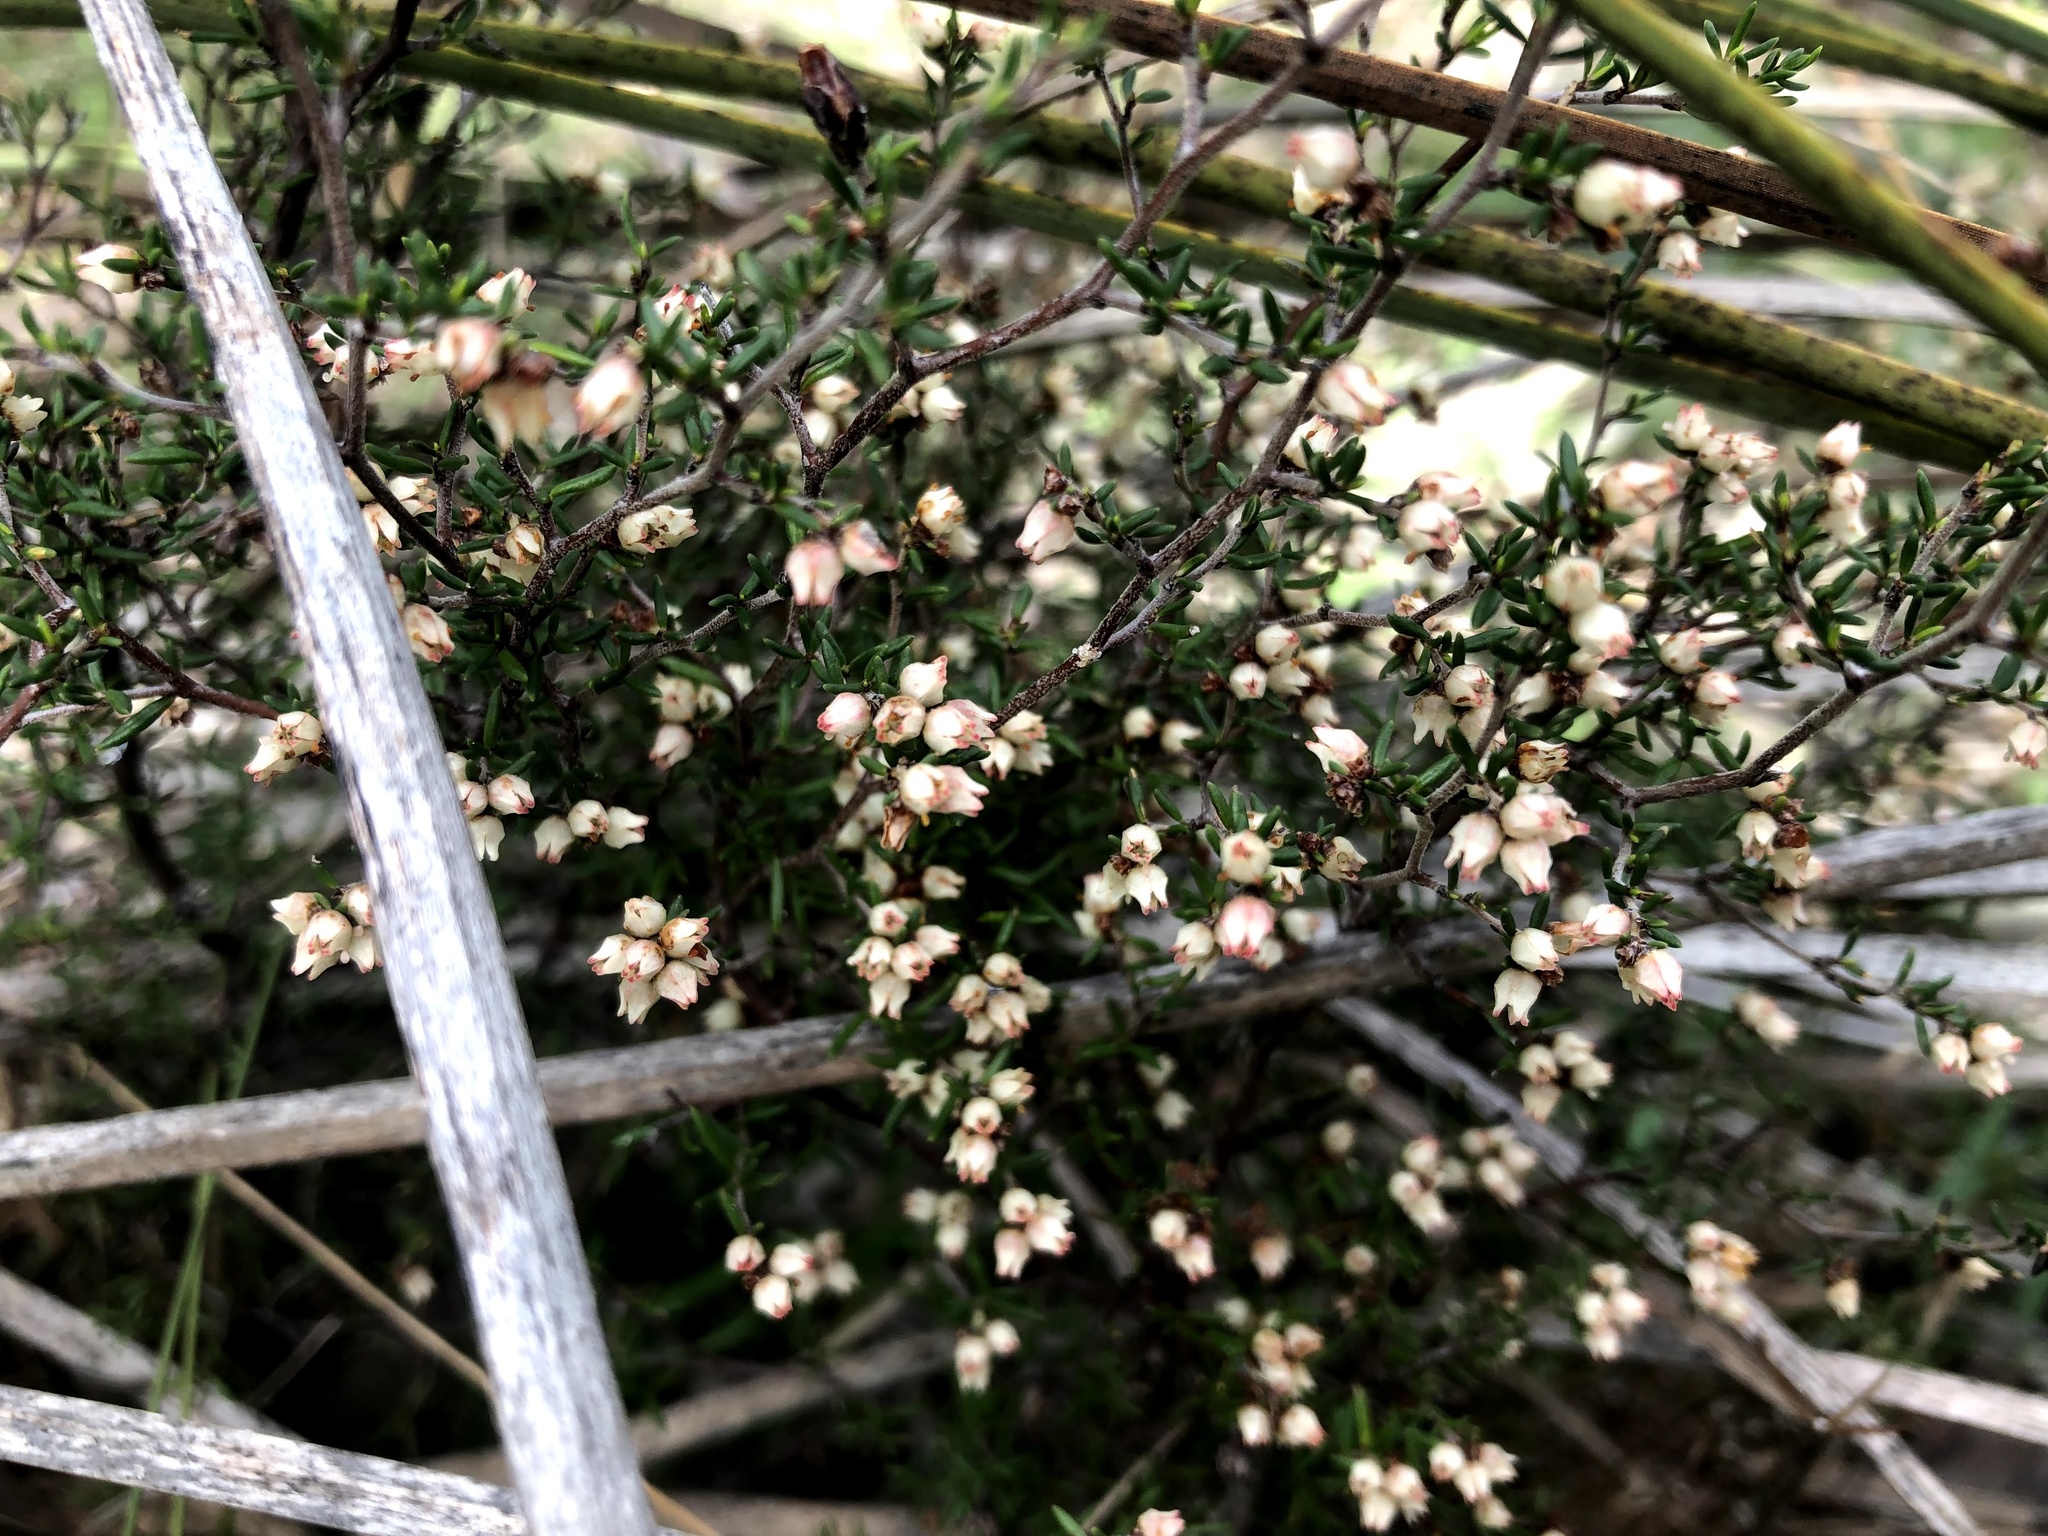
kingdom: Plantae
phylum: Tracheophyta
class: Magnoliopsida
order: Rosales
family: Rhamnaceae
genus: Cryptandra
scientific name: Cryptandra tomentosa
